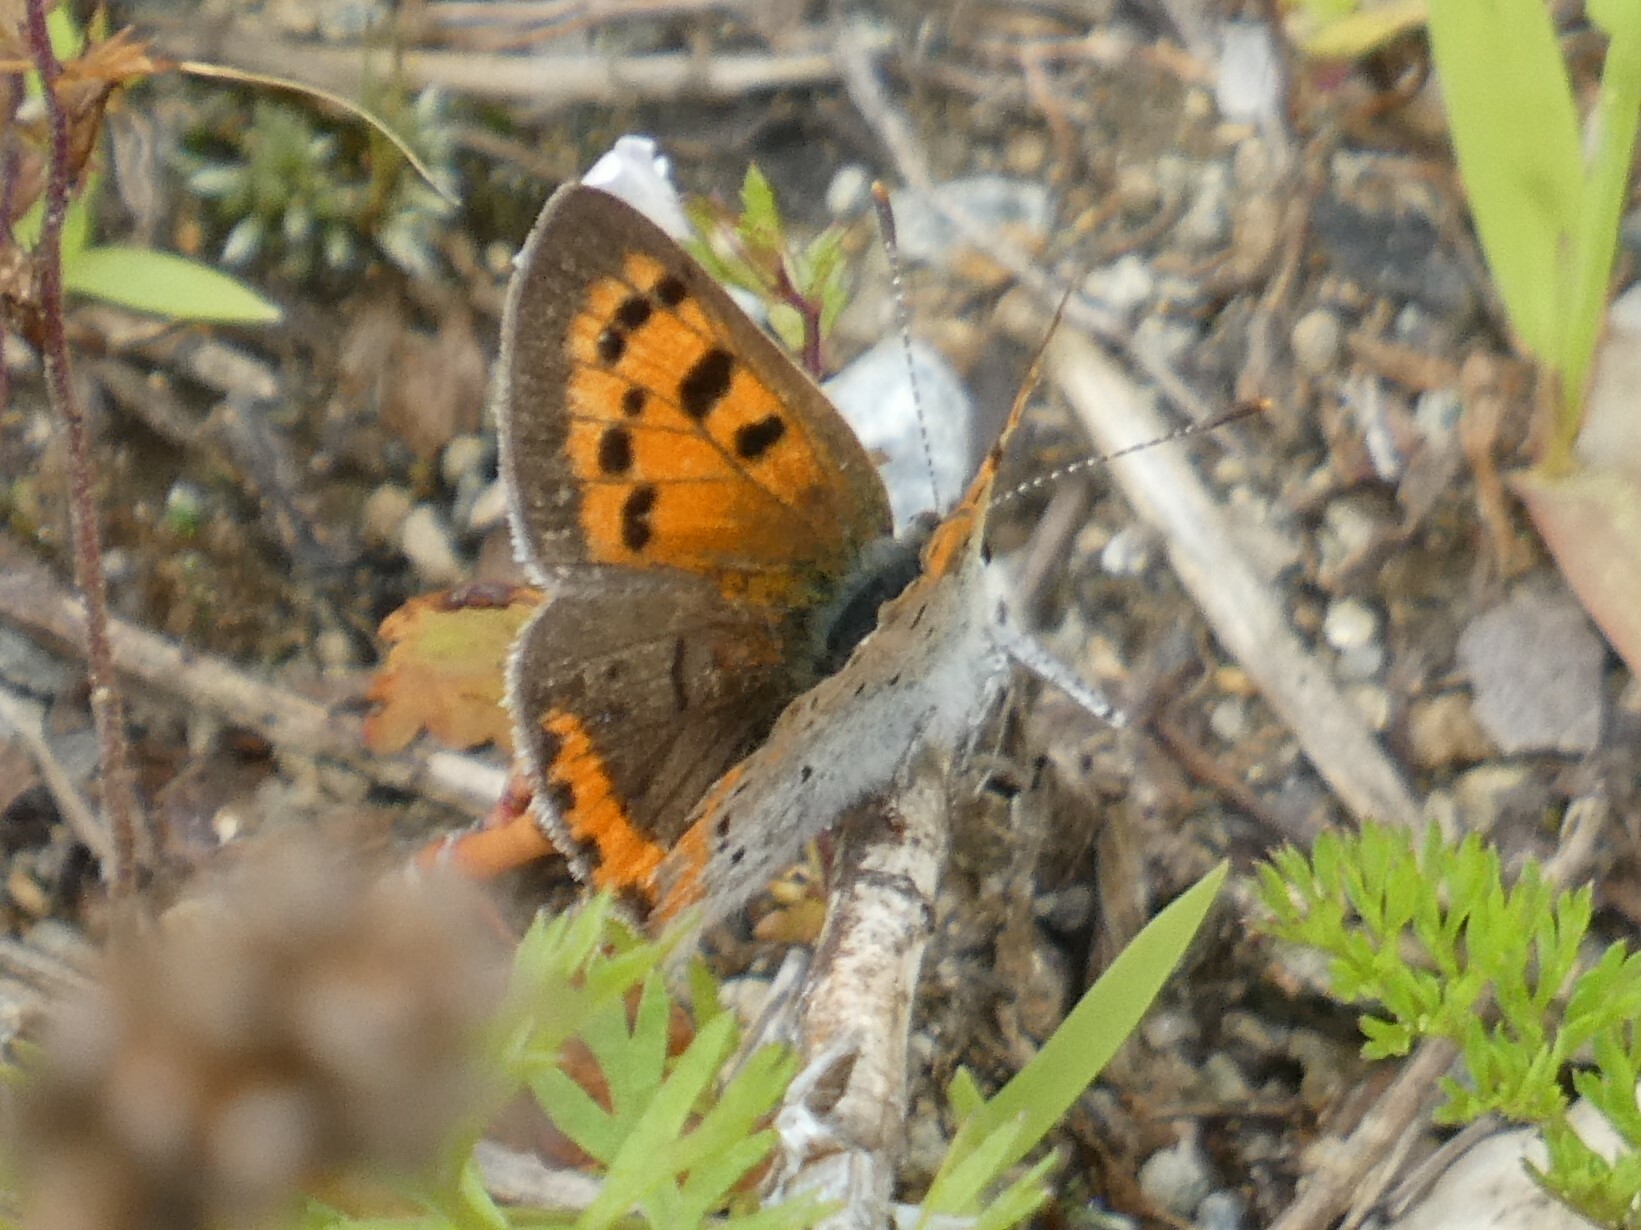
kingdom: Animalia
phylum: Arthropoda
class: Insecta
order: Lepidoptera
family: Lycaenidae
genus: Lycaena
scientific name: Lycaena hypophlaeas
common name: American copper
